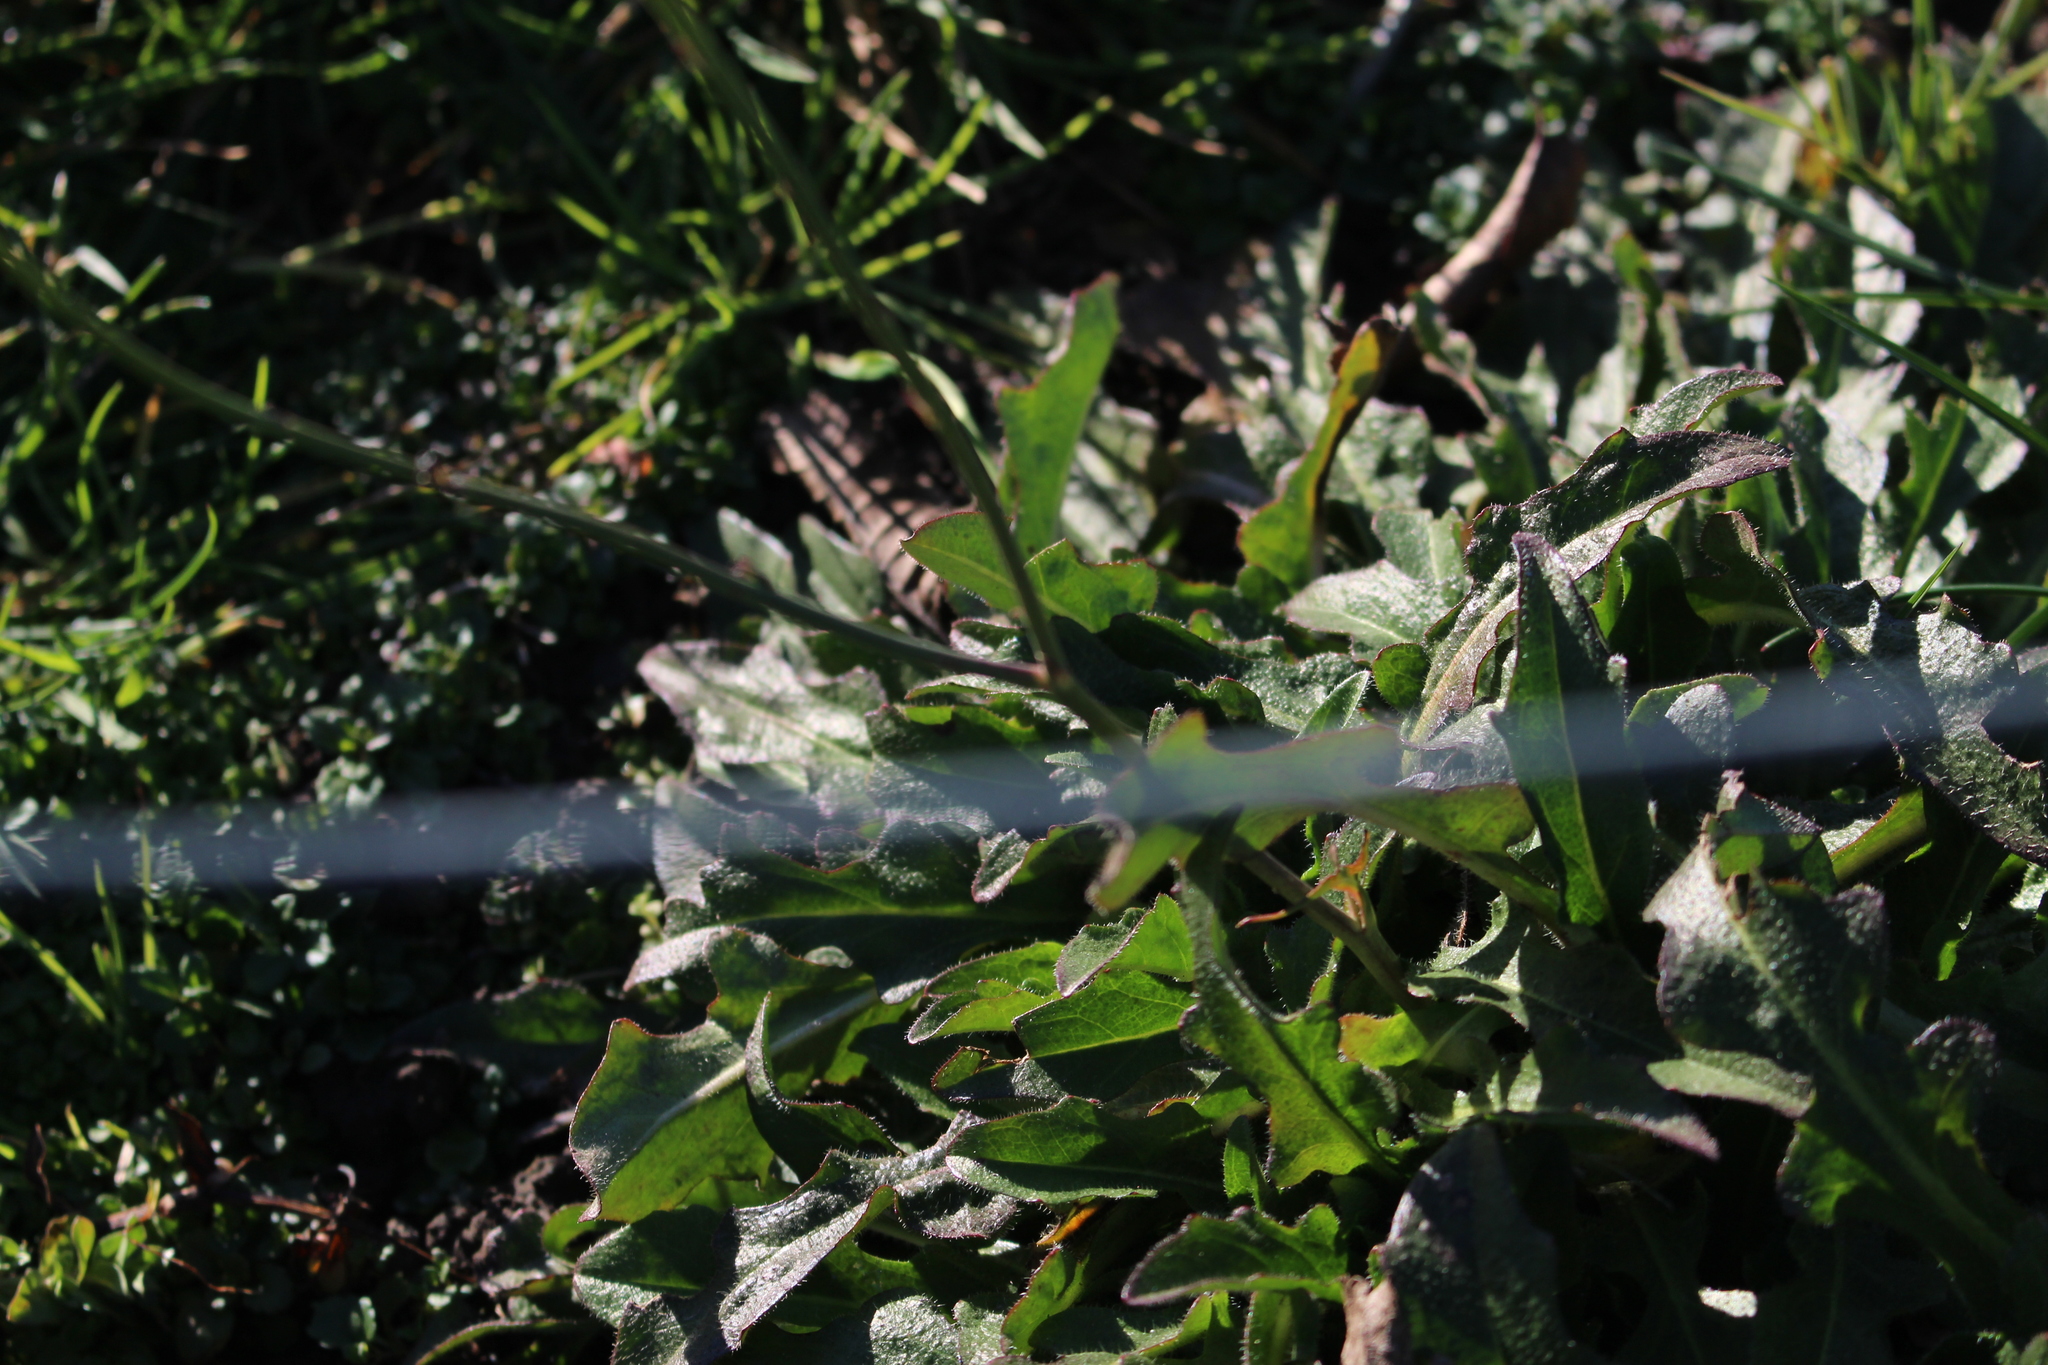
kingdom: Plantae
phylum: Tracheophyta
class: Magnoliopsida
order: Asterales
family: Asteraceae
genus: Hypochaeris
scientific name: Hypochaeris radicata
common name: Flatweed
